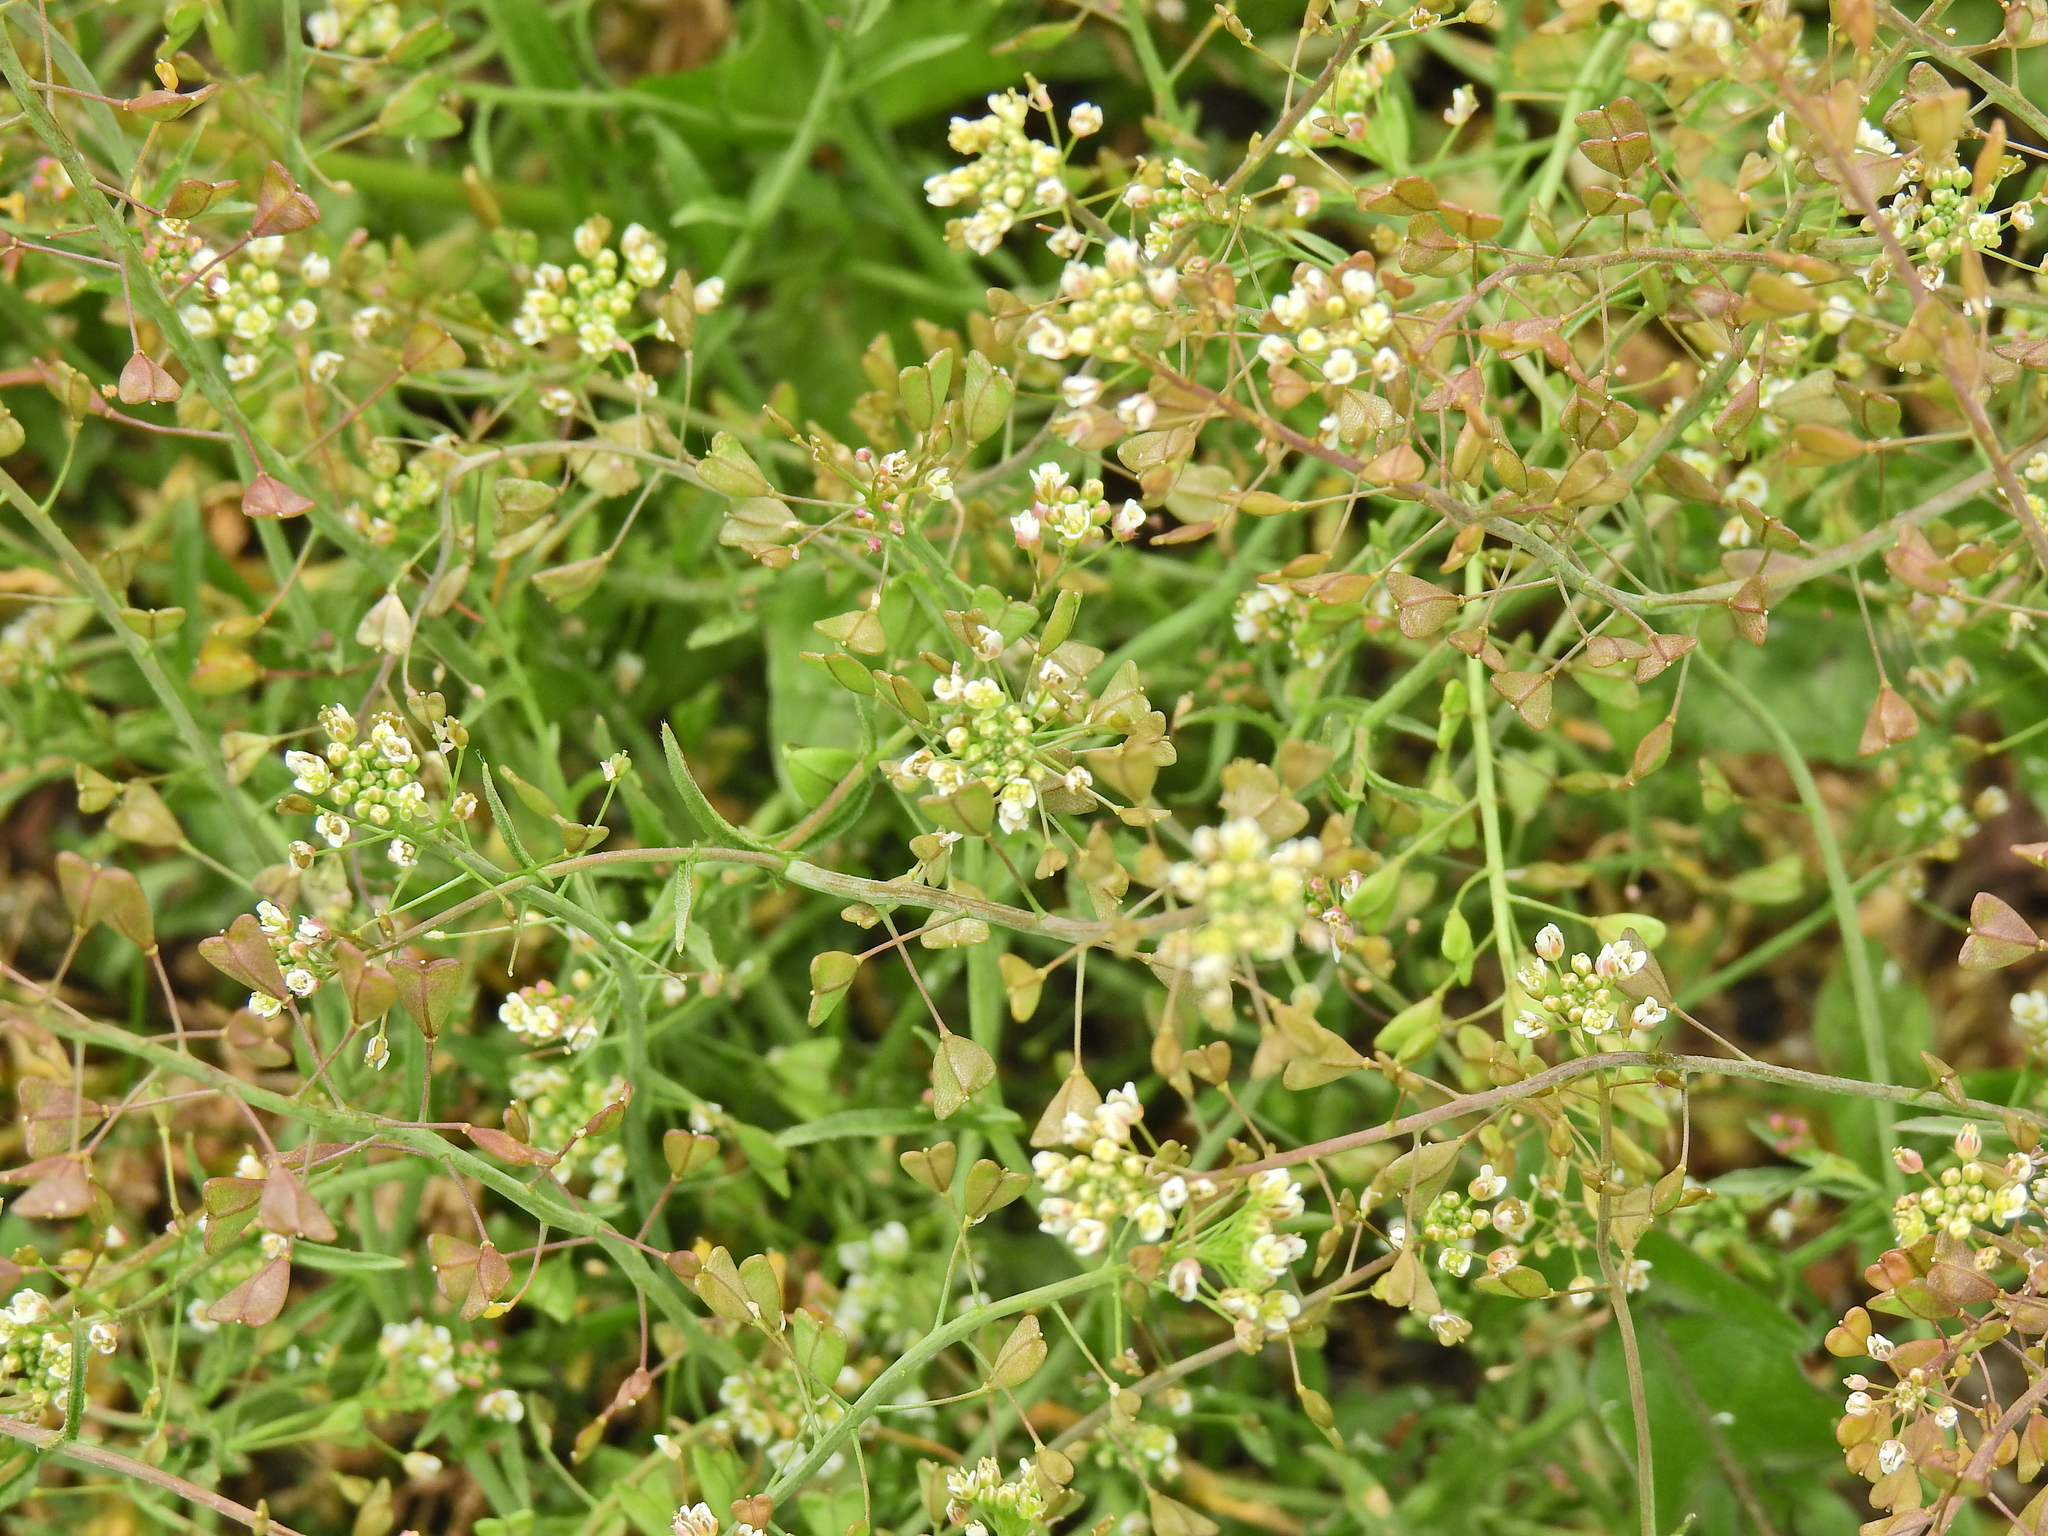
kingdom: Plantae
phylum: Tracheophyta
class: Magnoliopsida
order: Brassicales
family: Brassicaceae
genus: Capsella
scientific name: Capsella bursa-pastoris
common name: Shepherd's purse
